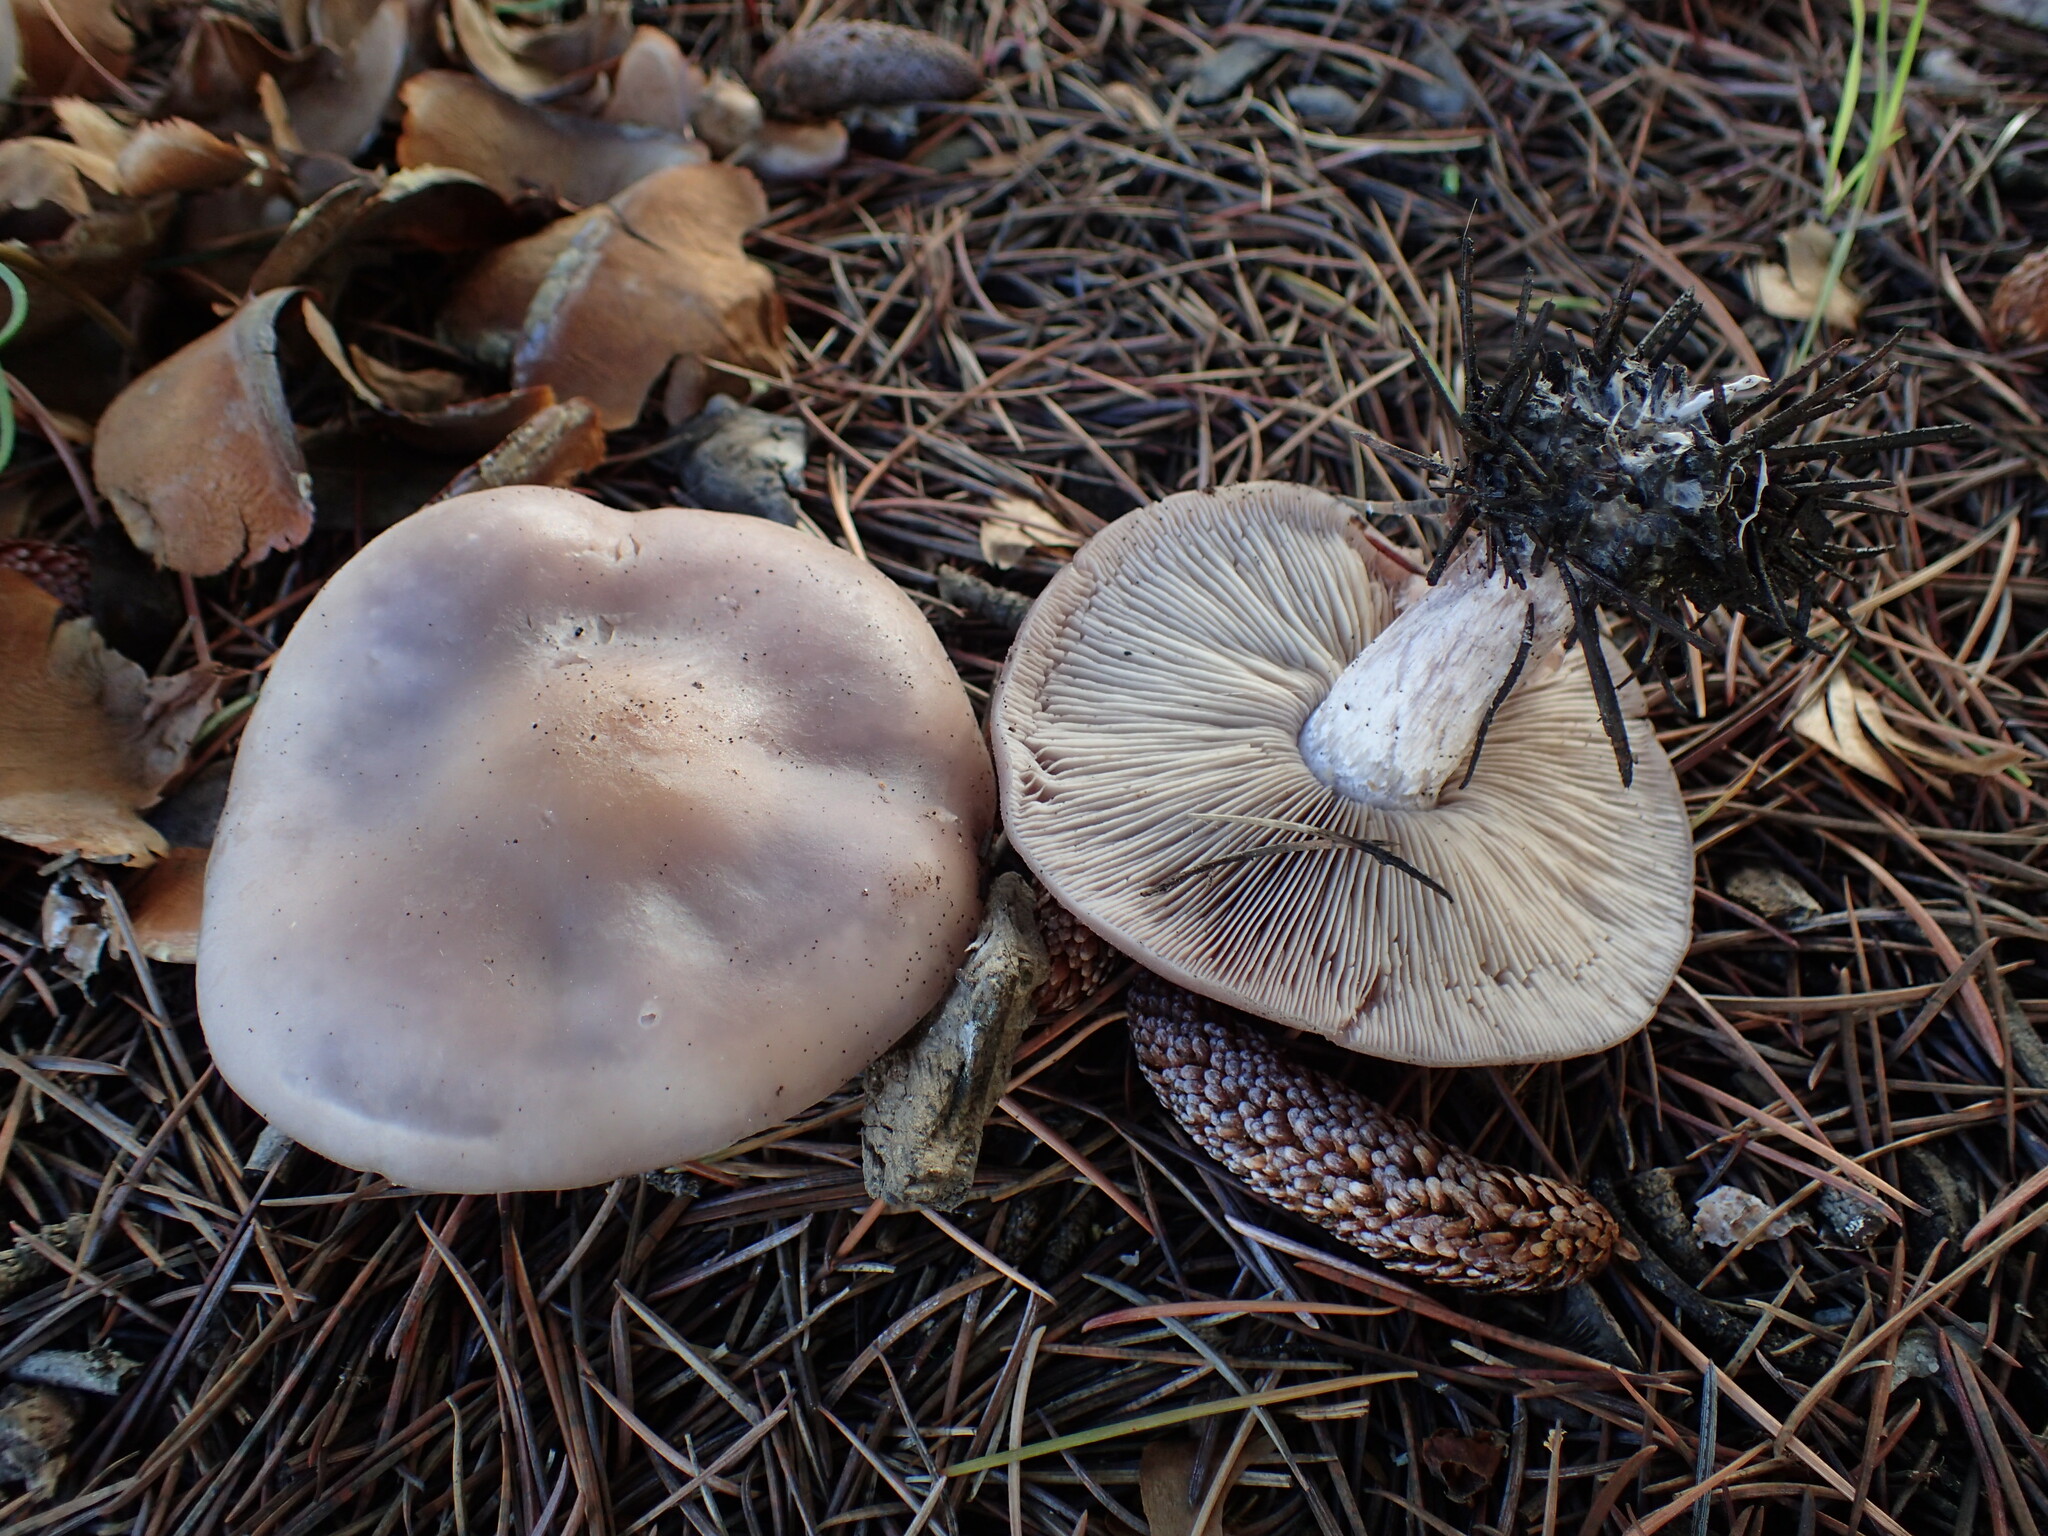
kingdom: Fungi
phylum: Basidiomycota
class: Agaricomycetes
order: Agaricales
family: Tricholomataceae
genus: Collybia
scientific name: Collybia
